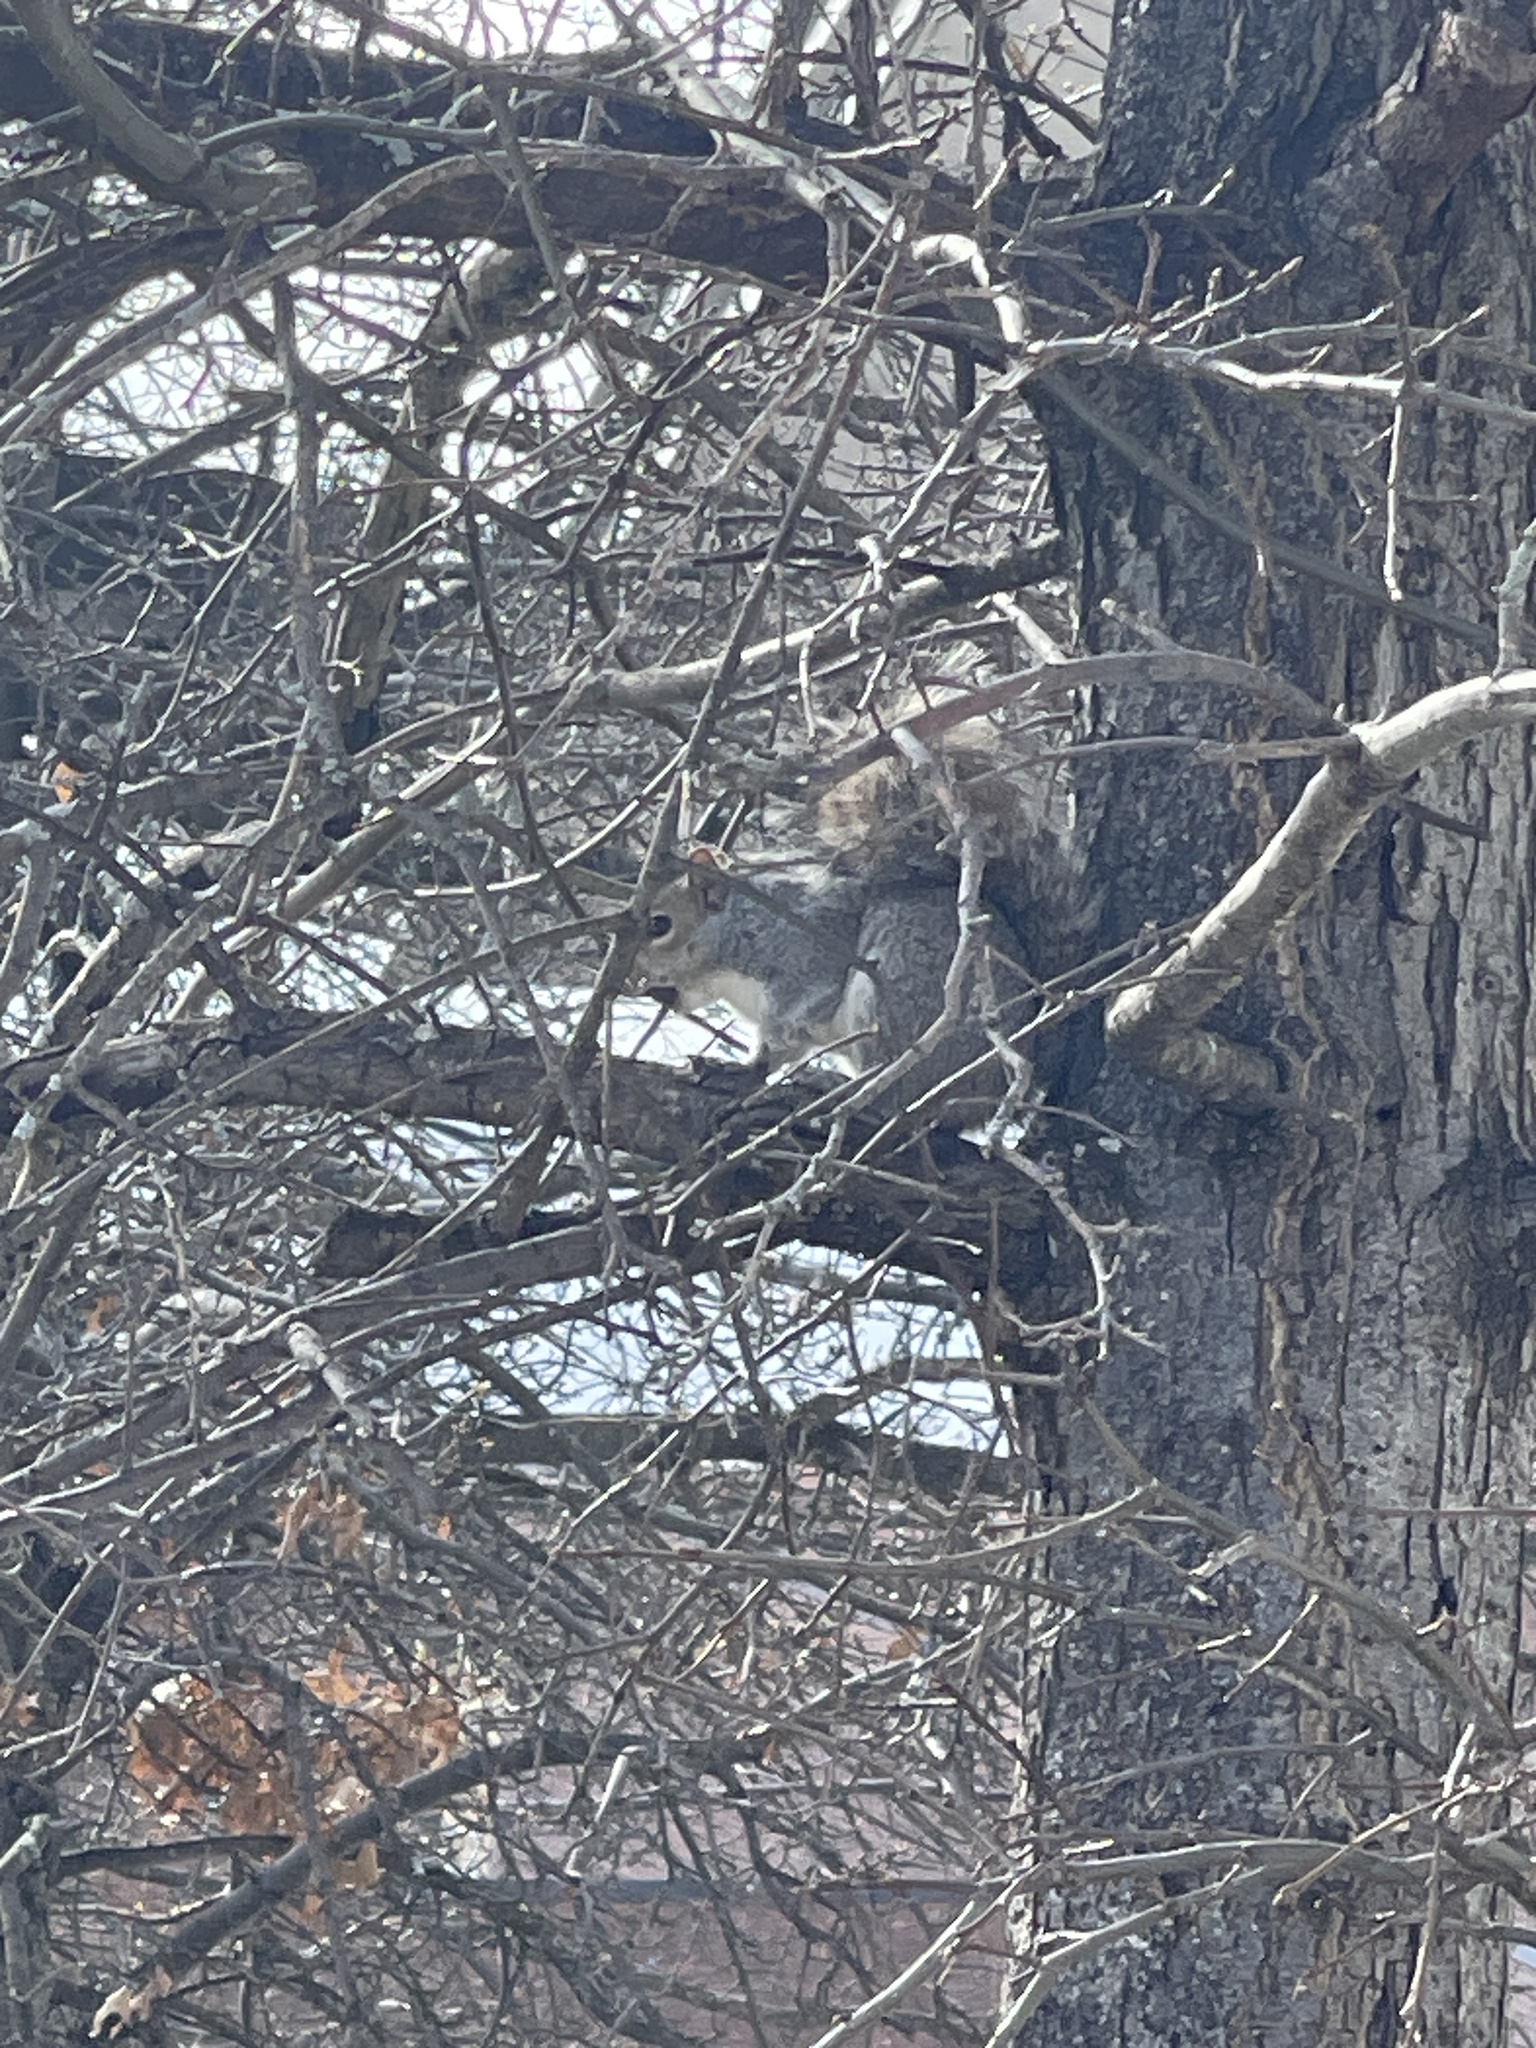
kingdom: Animalia
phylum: Chordata
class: Mammalia
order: Rodentia
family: Sciuridae
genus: Sciurus
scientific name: Sciurus carolinensis
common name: Eastern gray squirrel
